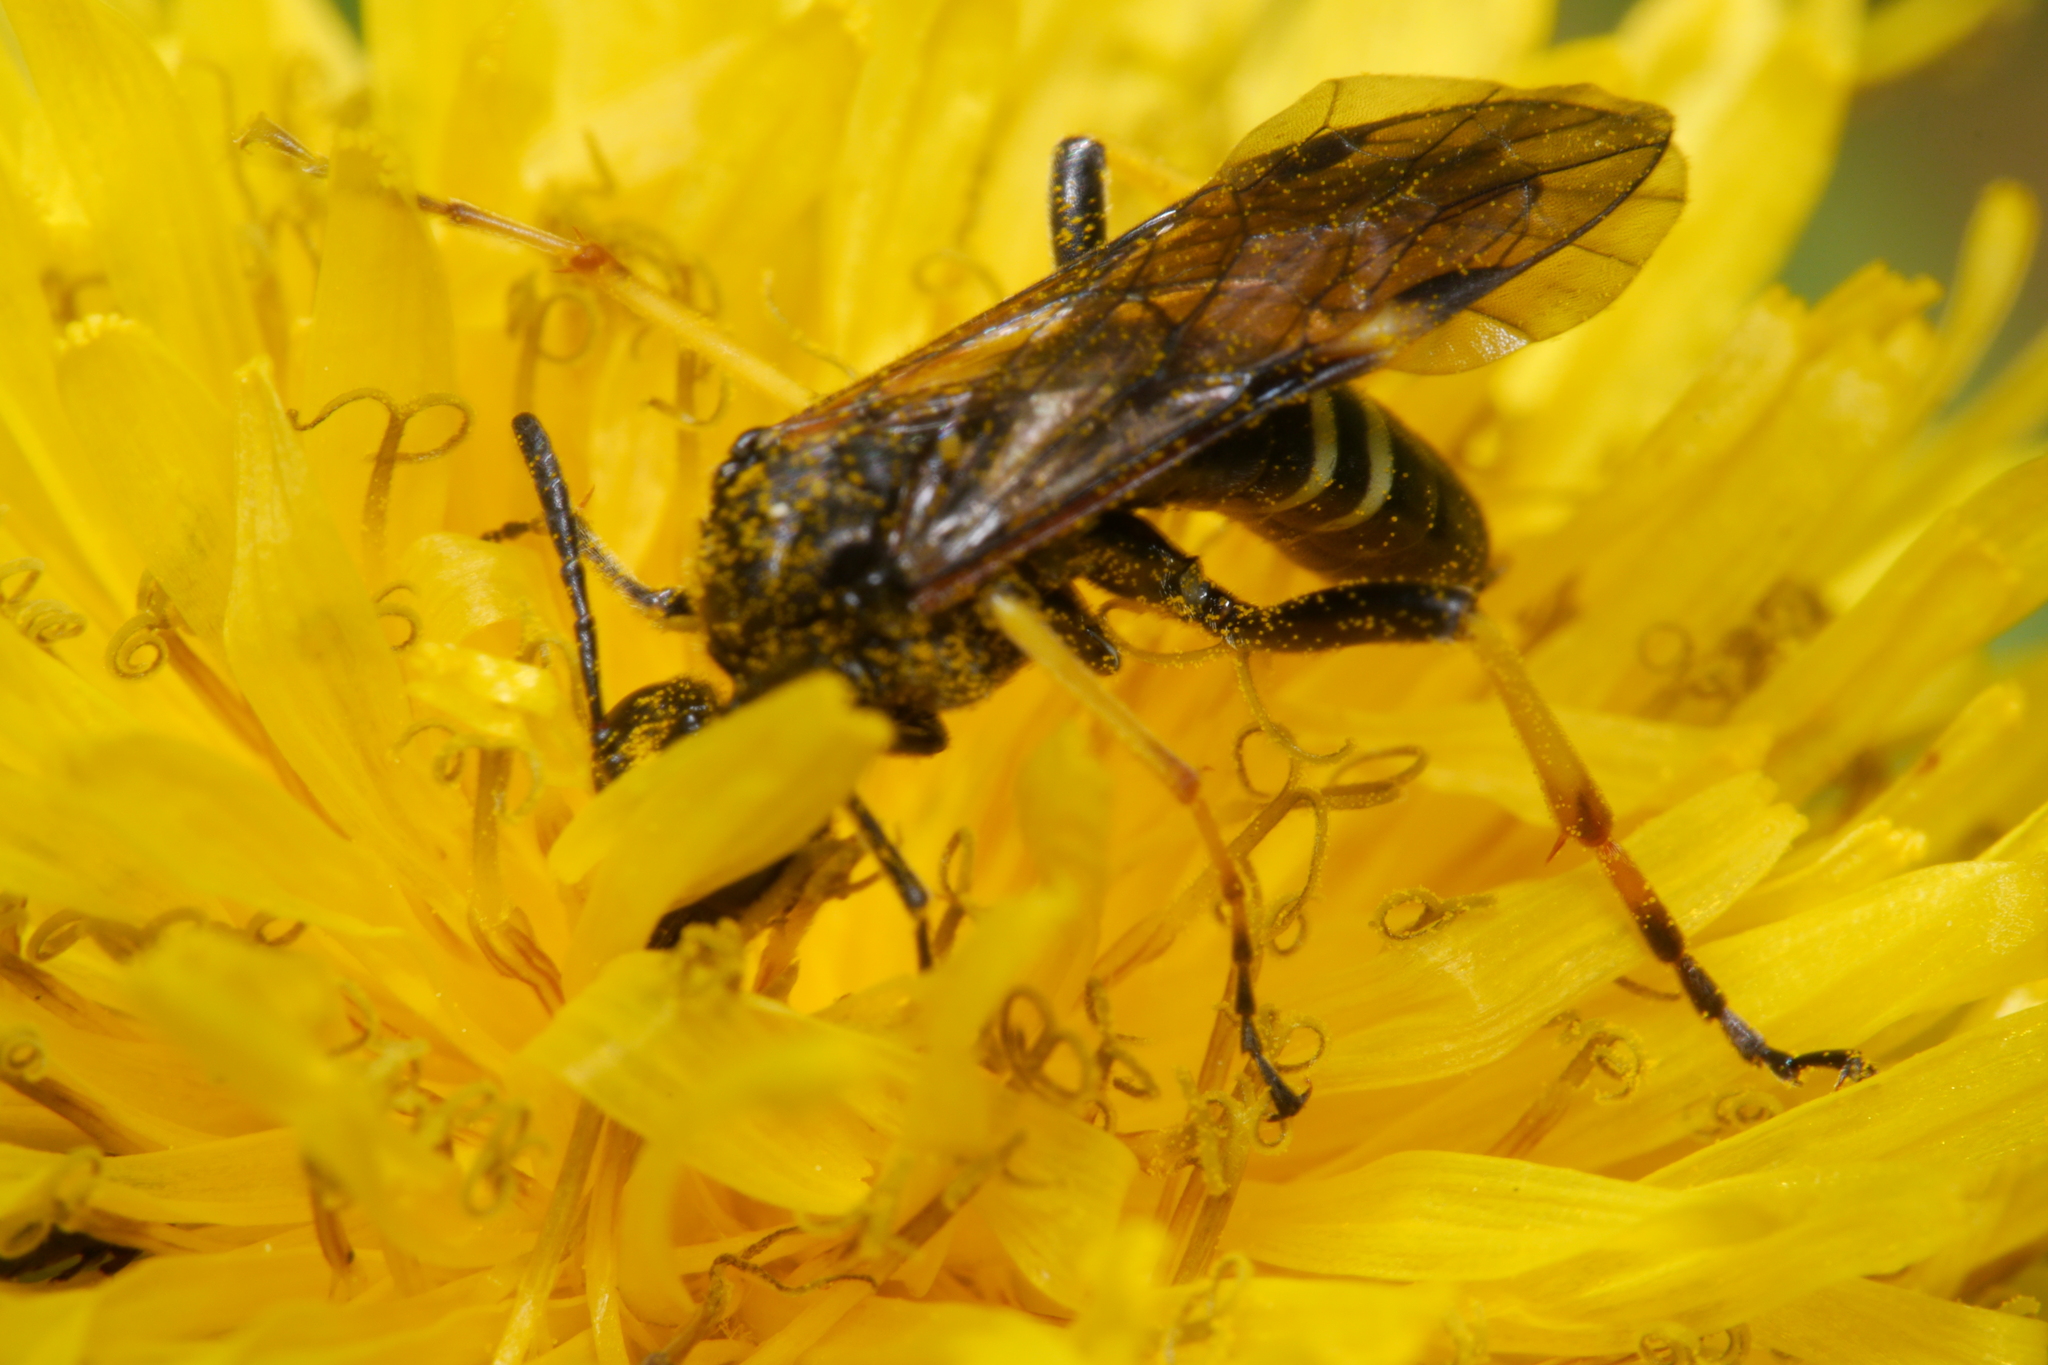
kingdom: Animalia
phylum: Arthropoda
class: Insecta
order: Hymenoptera
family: Tenthredinidae
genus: Tenthredo
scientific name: Tenthredo koehleri
